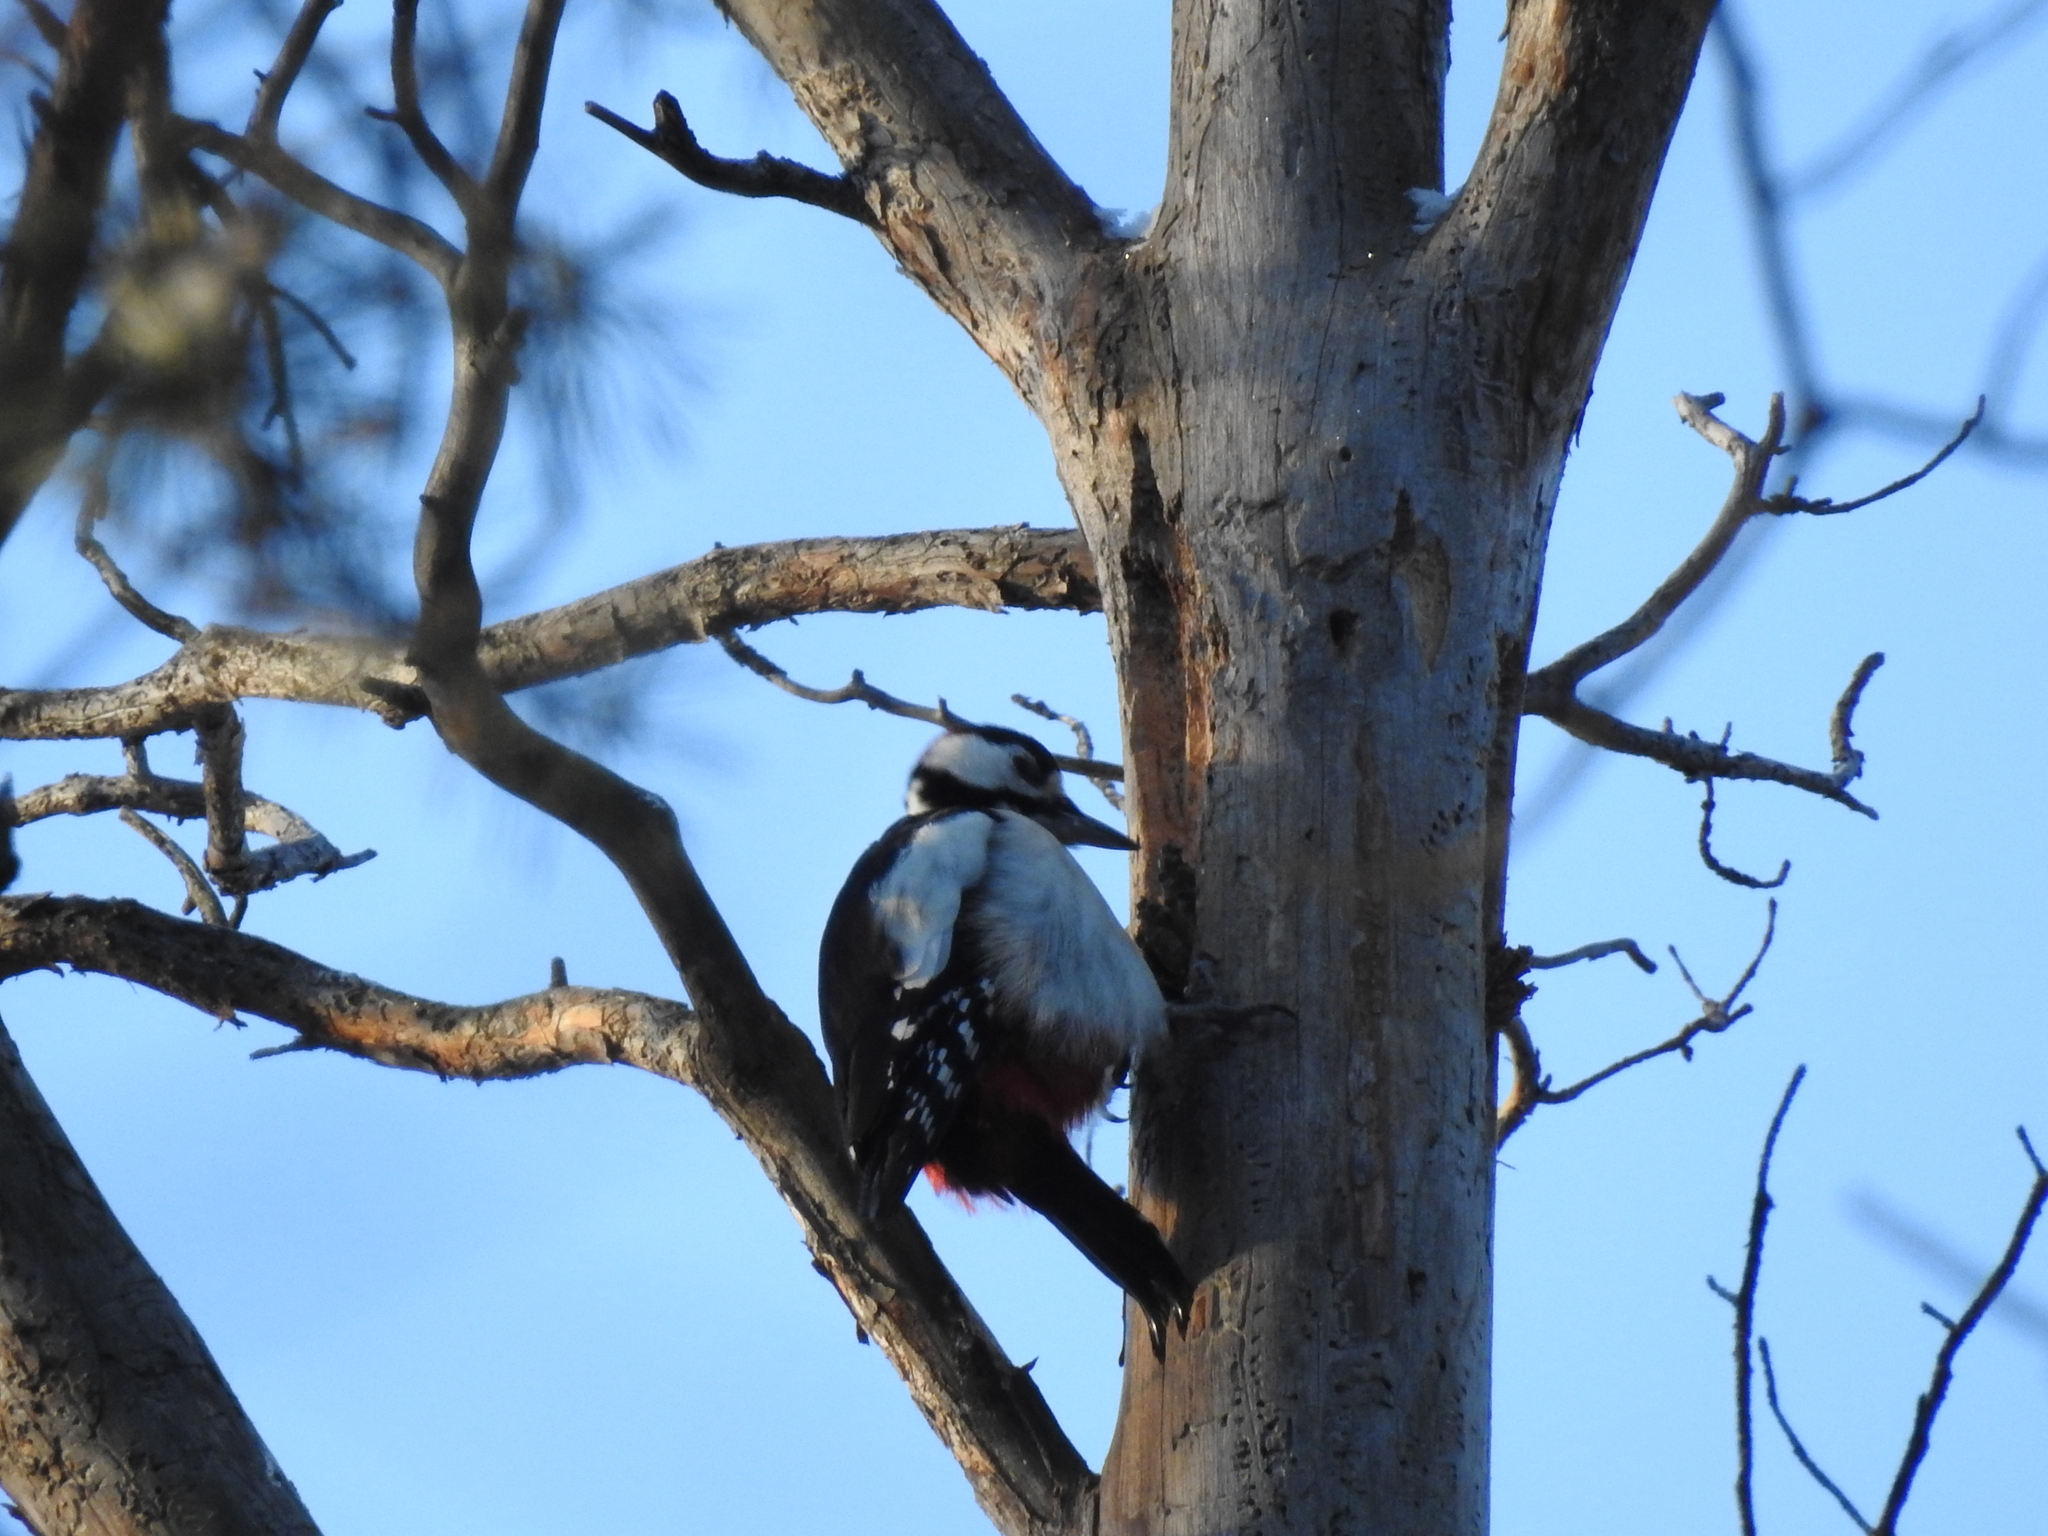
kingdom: Animalia
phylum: Chordata
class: Aves
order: Piciformes
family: Picidae
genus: Dendrocopos
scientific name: Dendrocopos major
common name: Great spotted woodpecker
